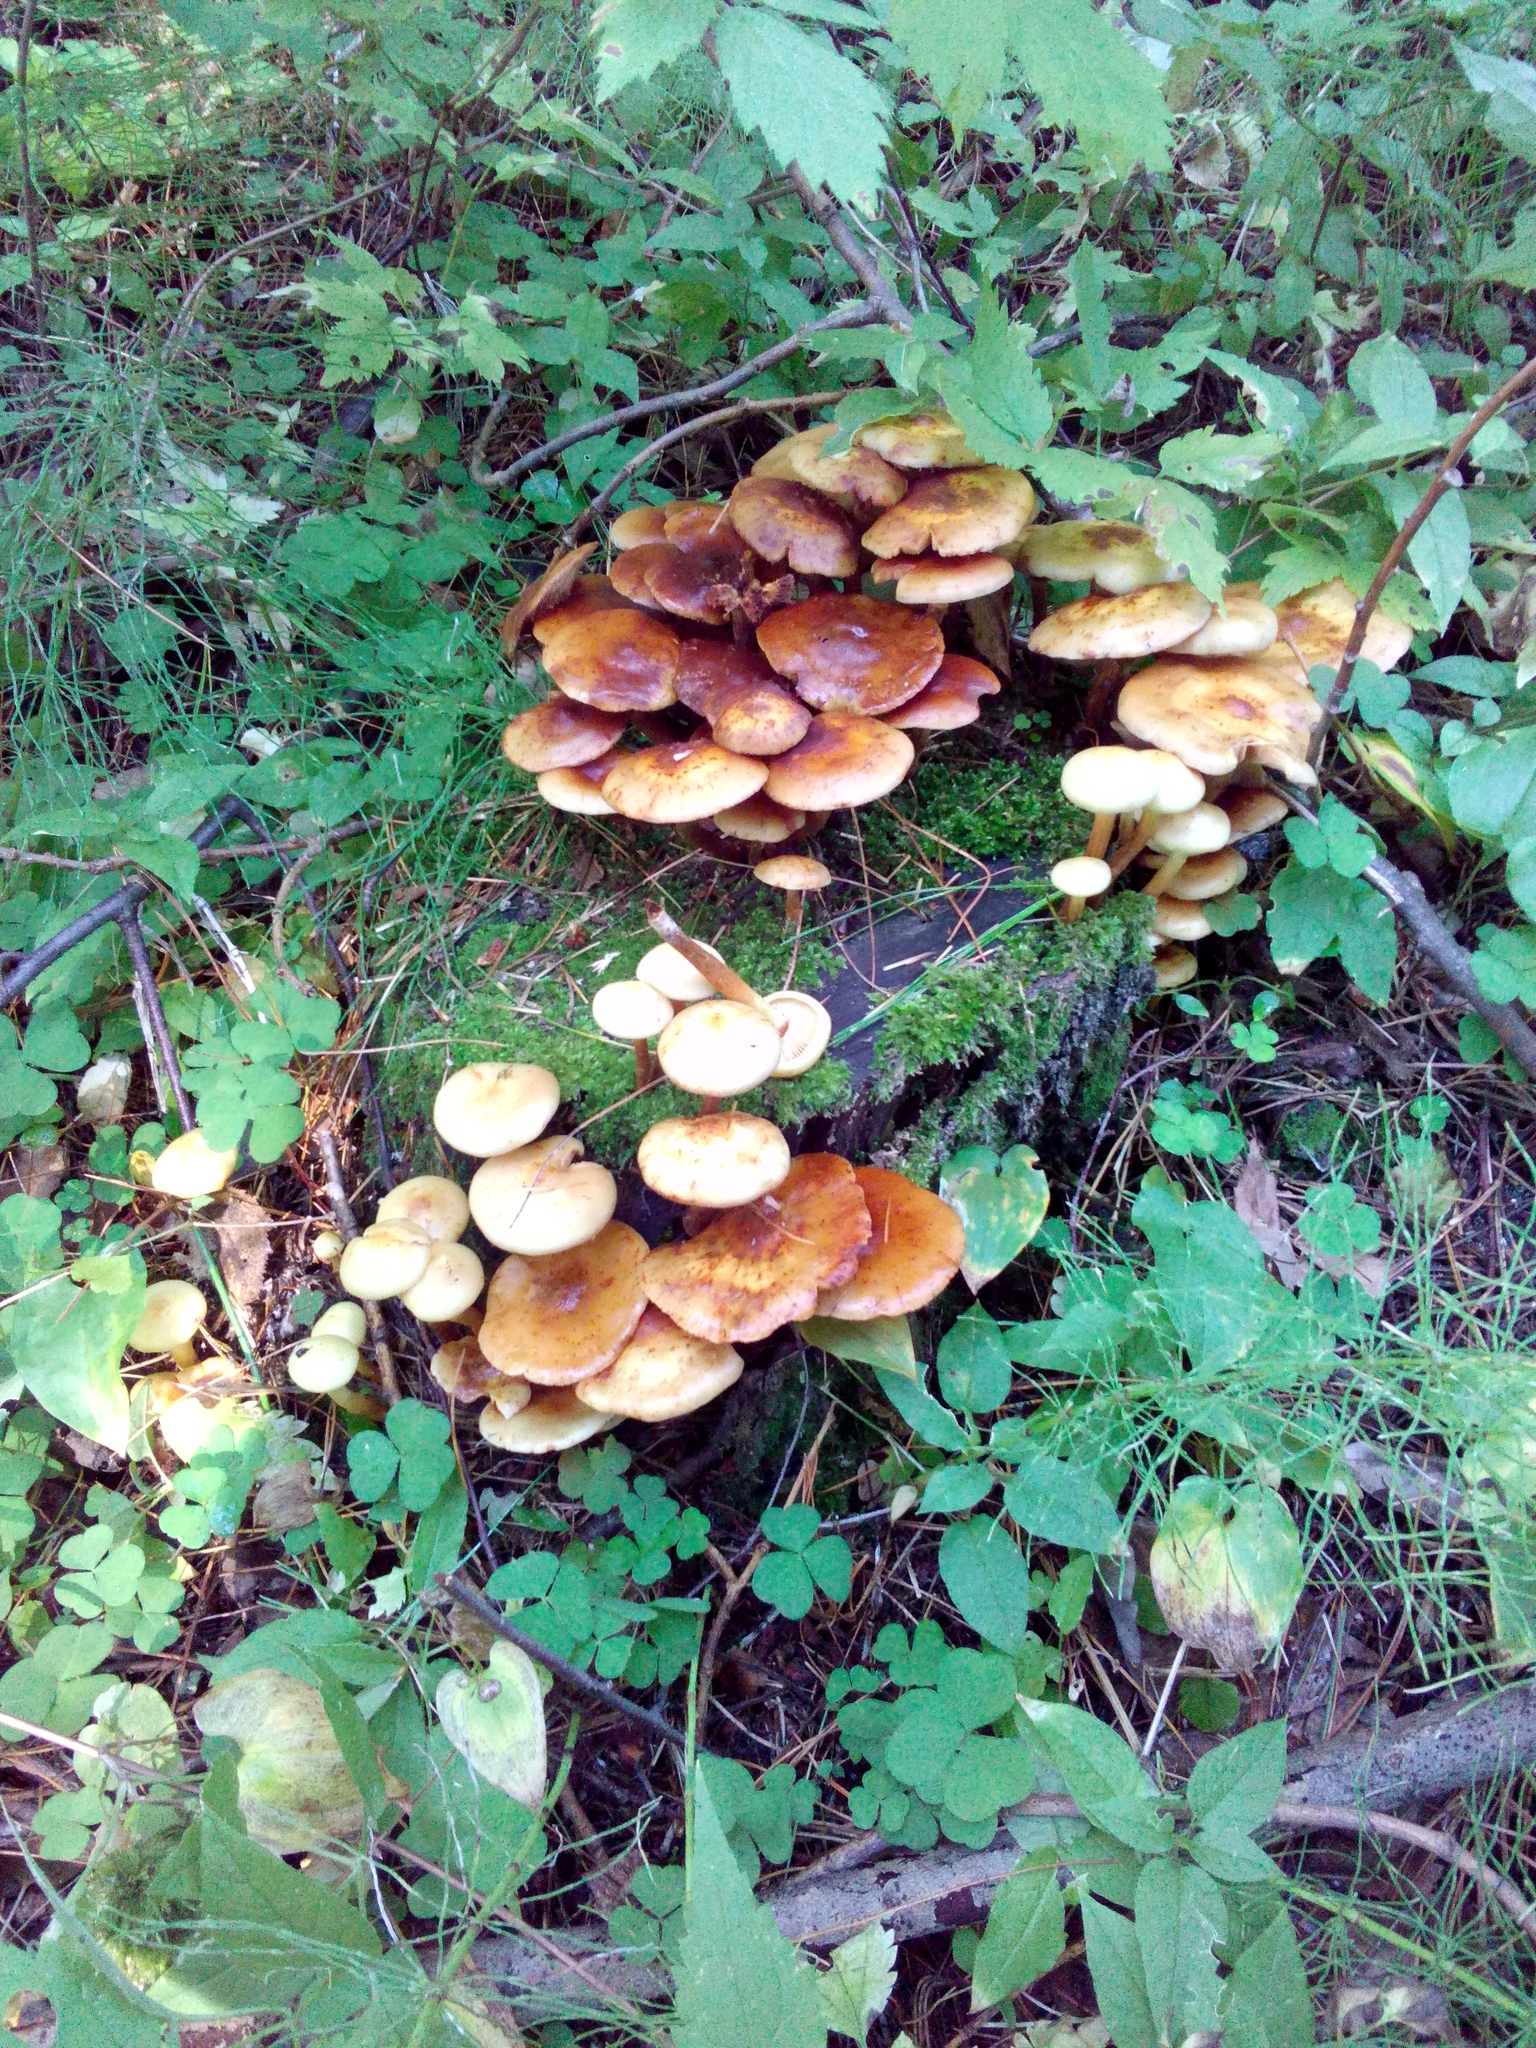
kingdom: Fungi
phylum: Basidiomycota
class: Agaricomycetes
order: Agaricales
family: Hymenogastraceae
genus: Flammula
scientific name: Flammula alnicola
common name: Alder scalycap
